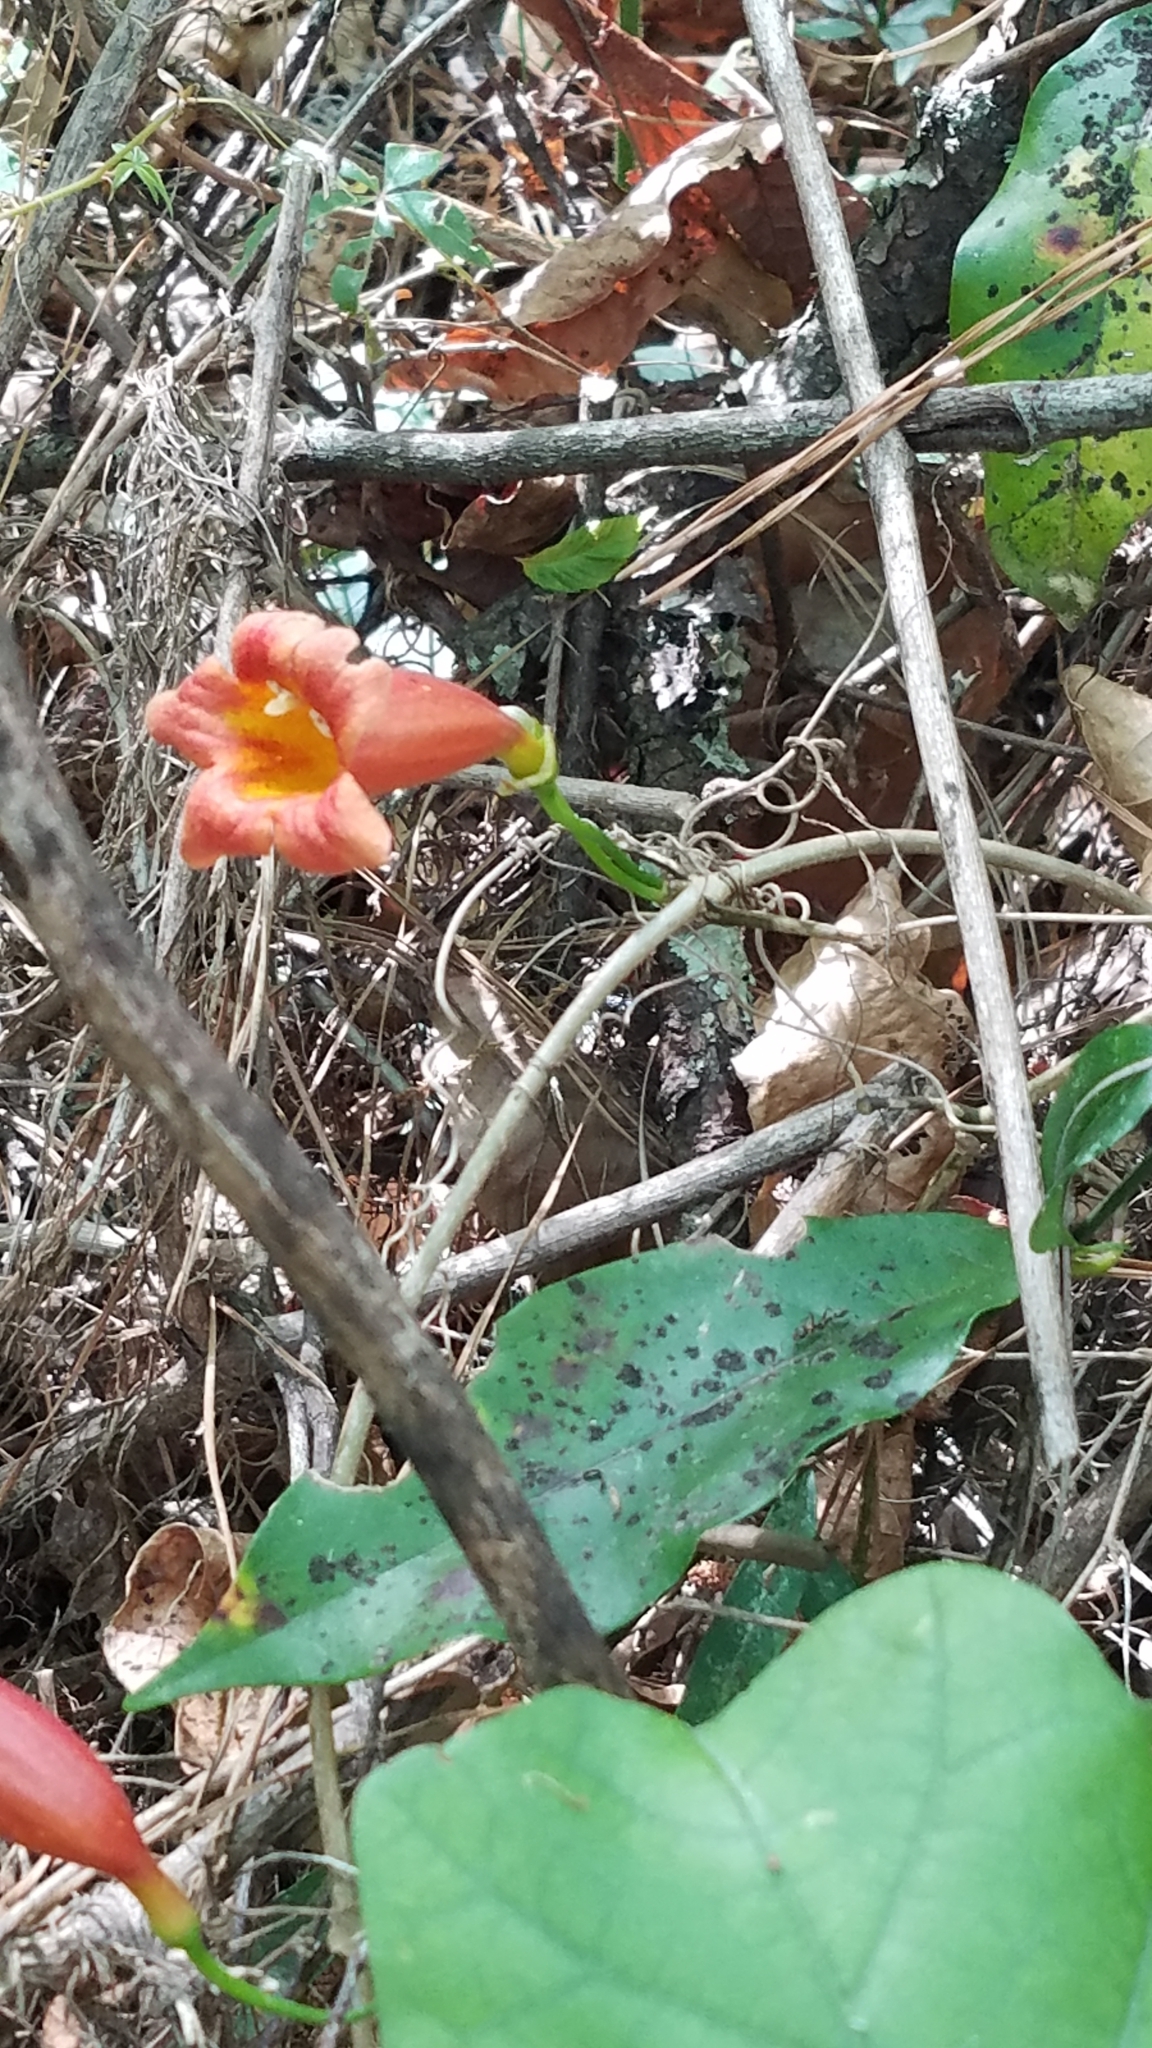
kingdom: Plantae
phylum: Tracheophyta
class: Magnoliopsida
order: Lamiales
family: Bignoniaceae
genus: Bignonia
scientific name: Bignonia capreolata
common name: Crossvine
